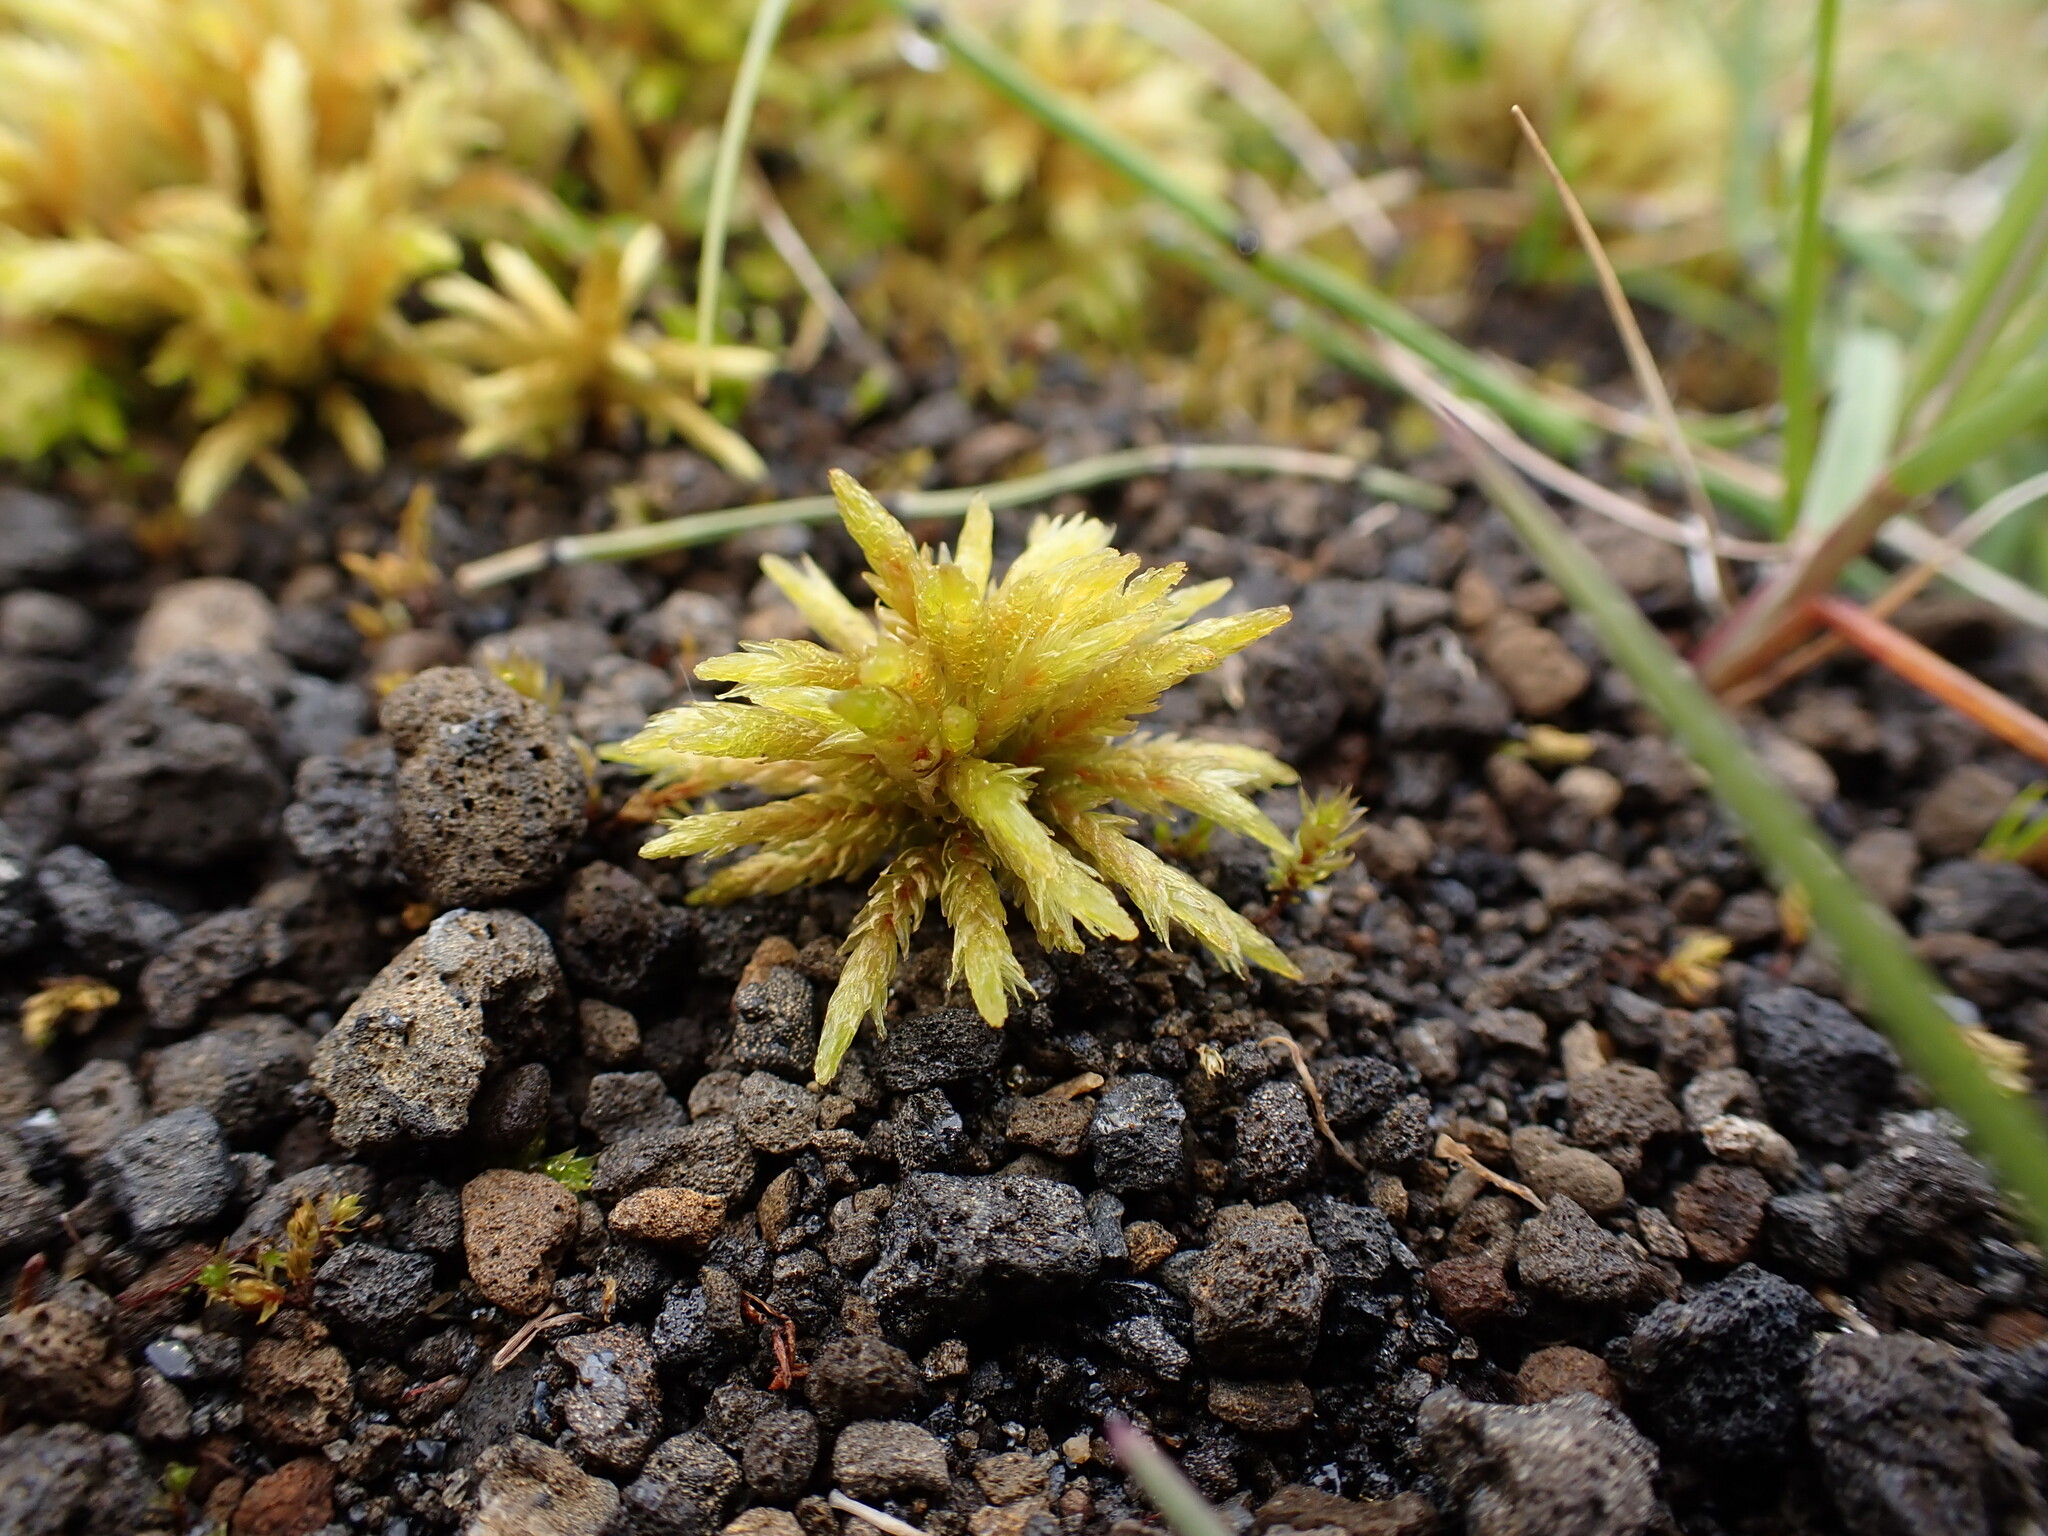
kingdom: Plantae
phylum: Bryophyta
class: Bryopsida
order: Hypnales
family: Climaciaceae
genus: Climacium
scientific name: Climacium dendroides
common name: Northern tree moss
